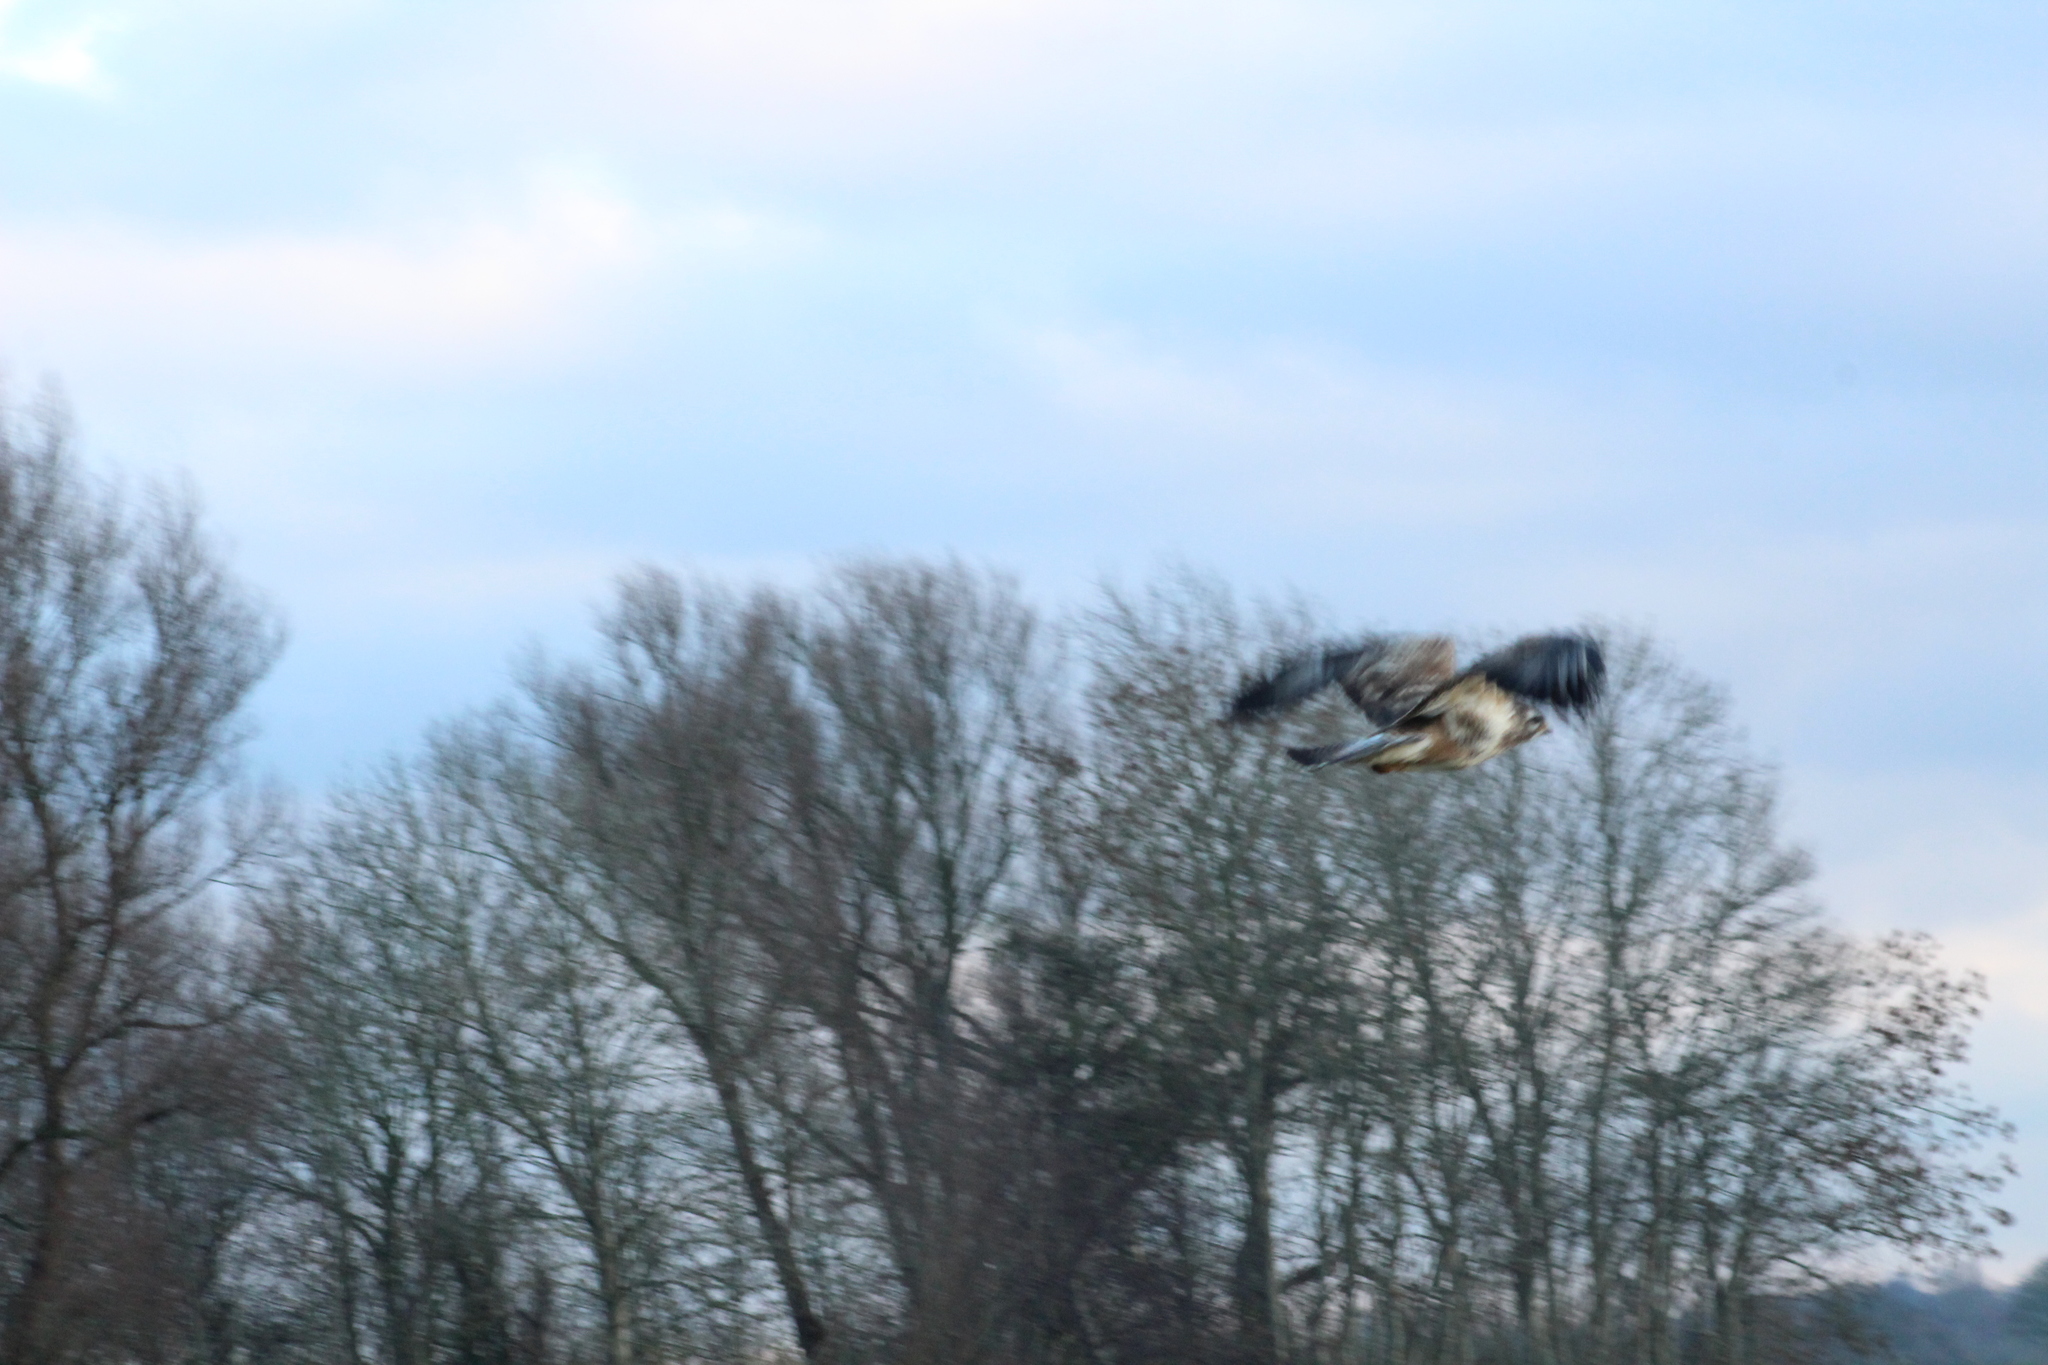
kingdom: Animalia
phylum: Chordata
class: Aves
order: Accipitriformes
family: Accipitridae
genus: Buteo
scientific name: Buteo buteo
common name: Common buzzard
